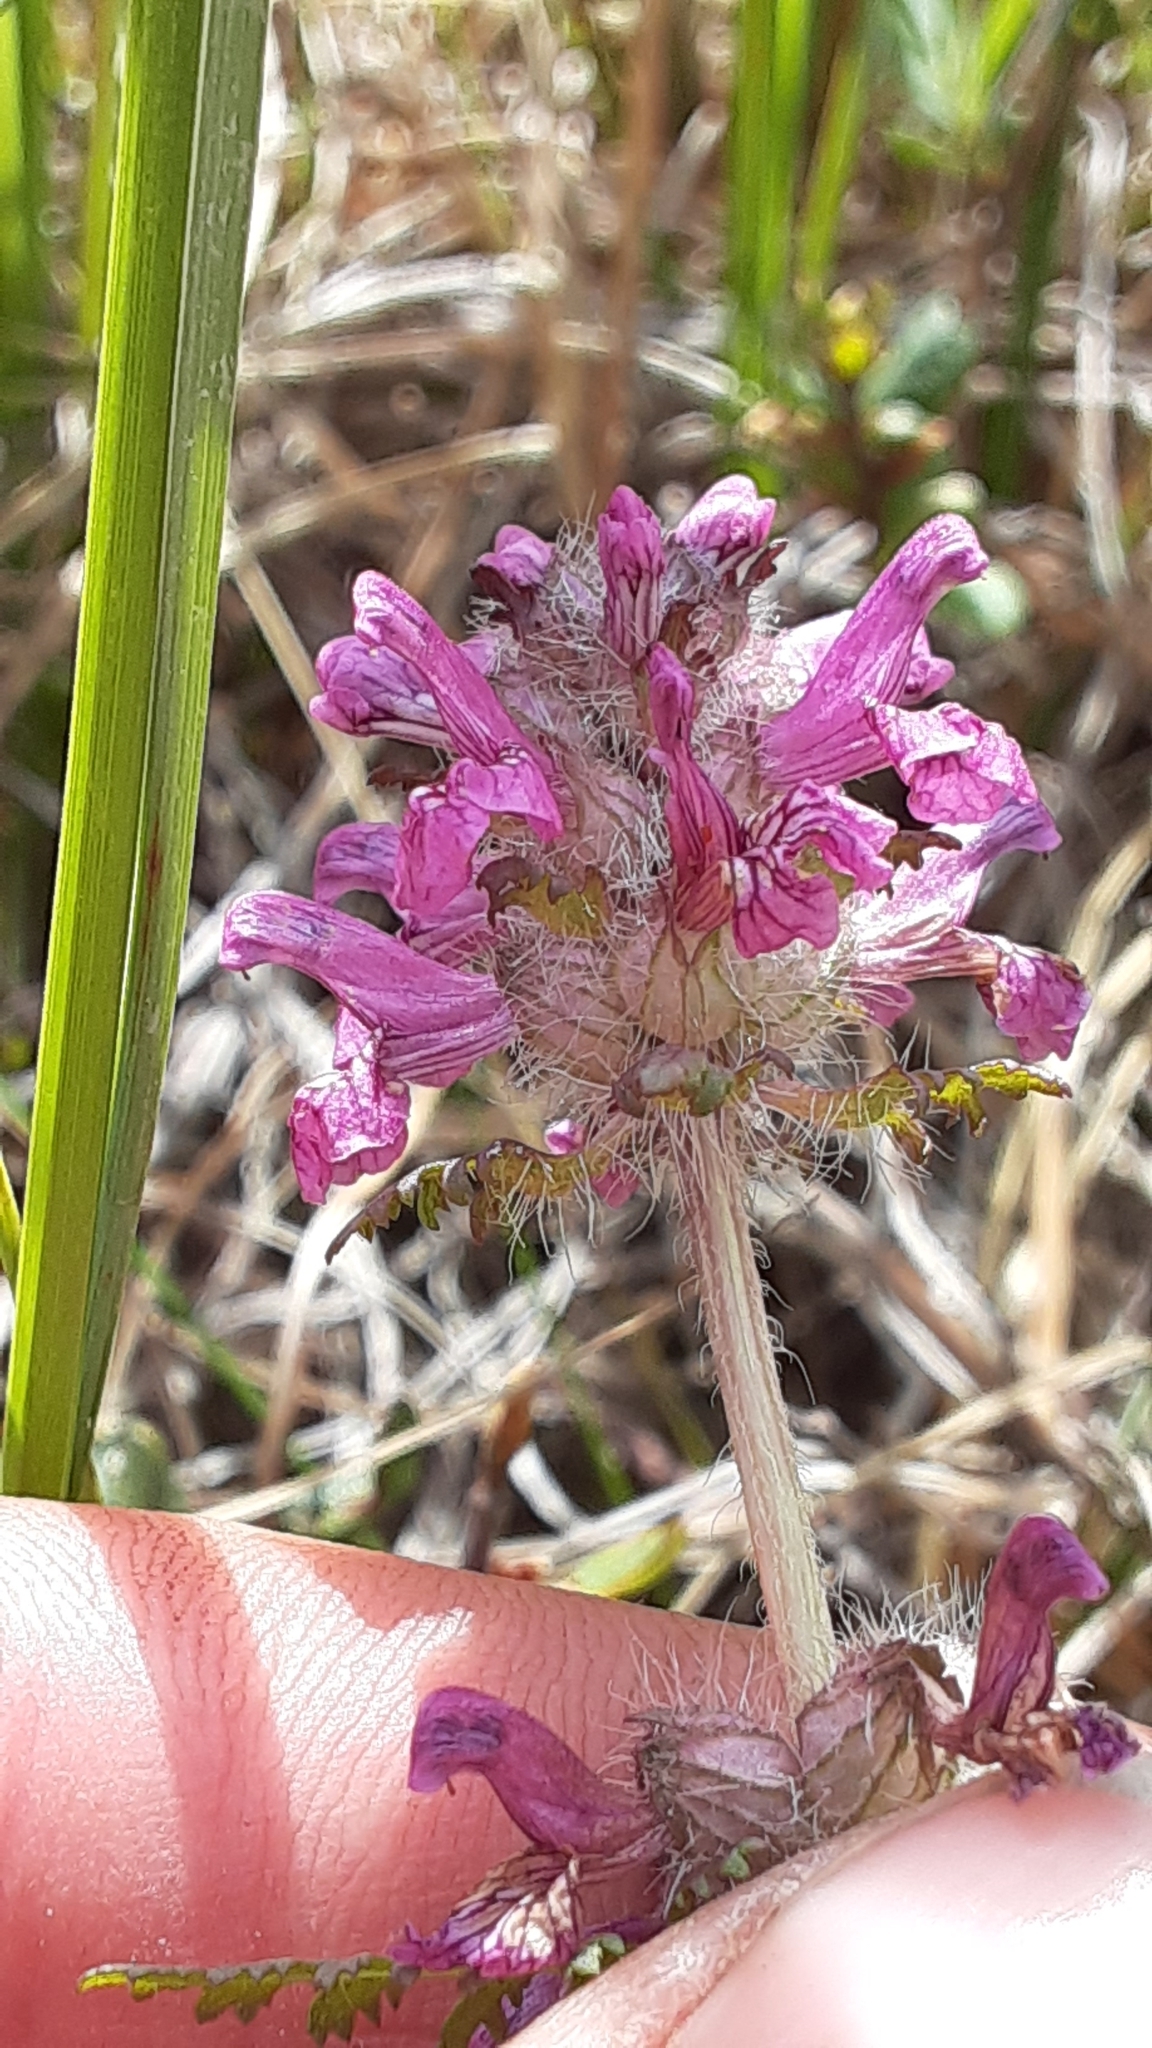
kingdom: Plantae
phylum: Tracheophyta
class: Magnoliopsida
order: Lamiales
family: Orobanchaceae
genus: Pedicularis
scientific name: Pedicularis verticillata
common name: Whorled lousewort
